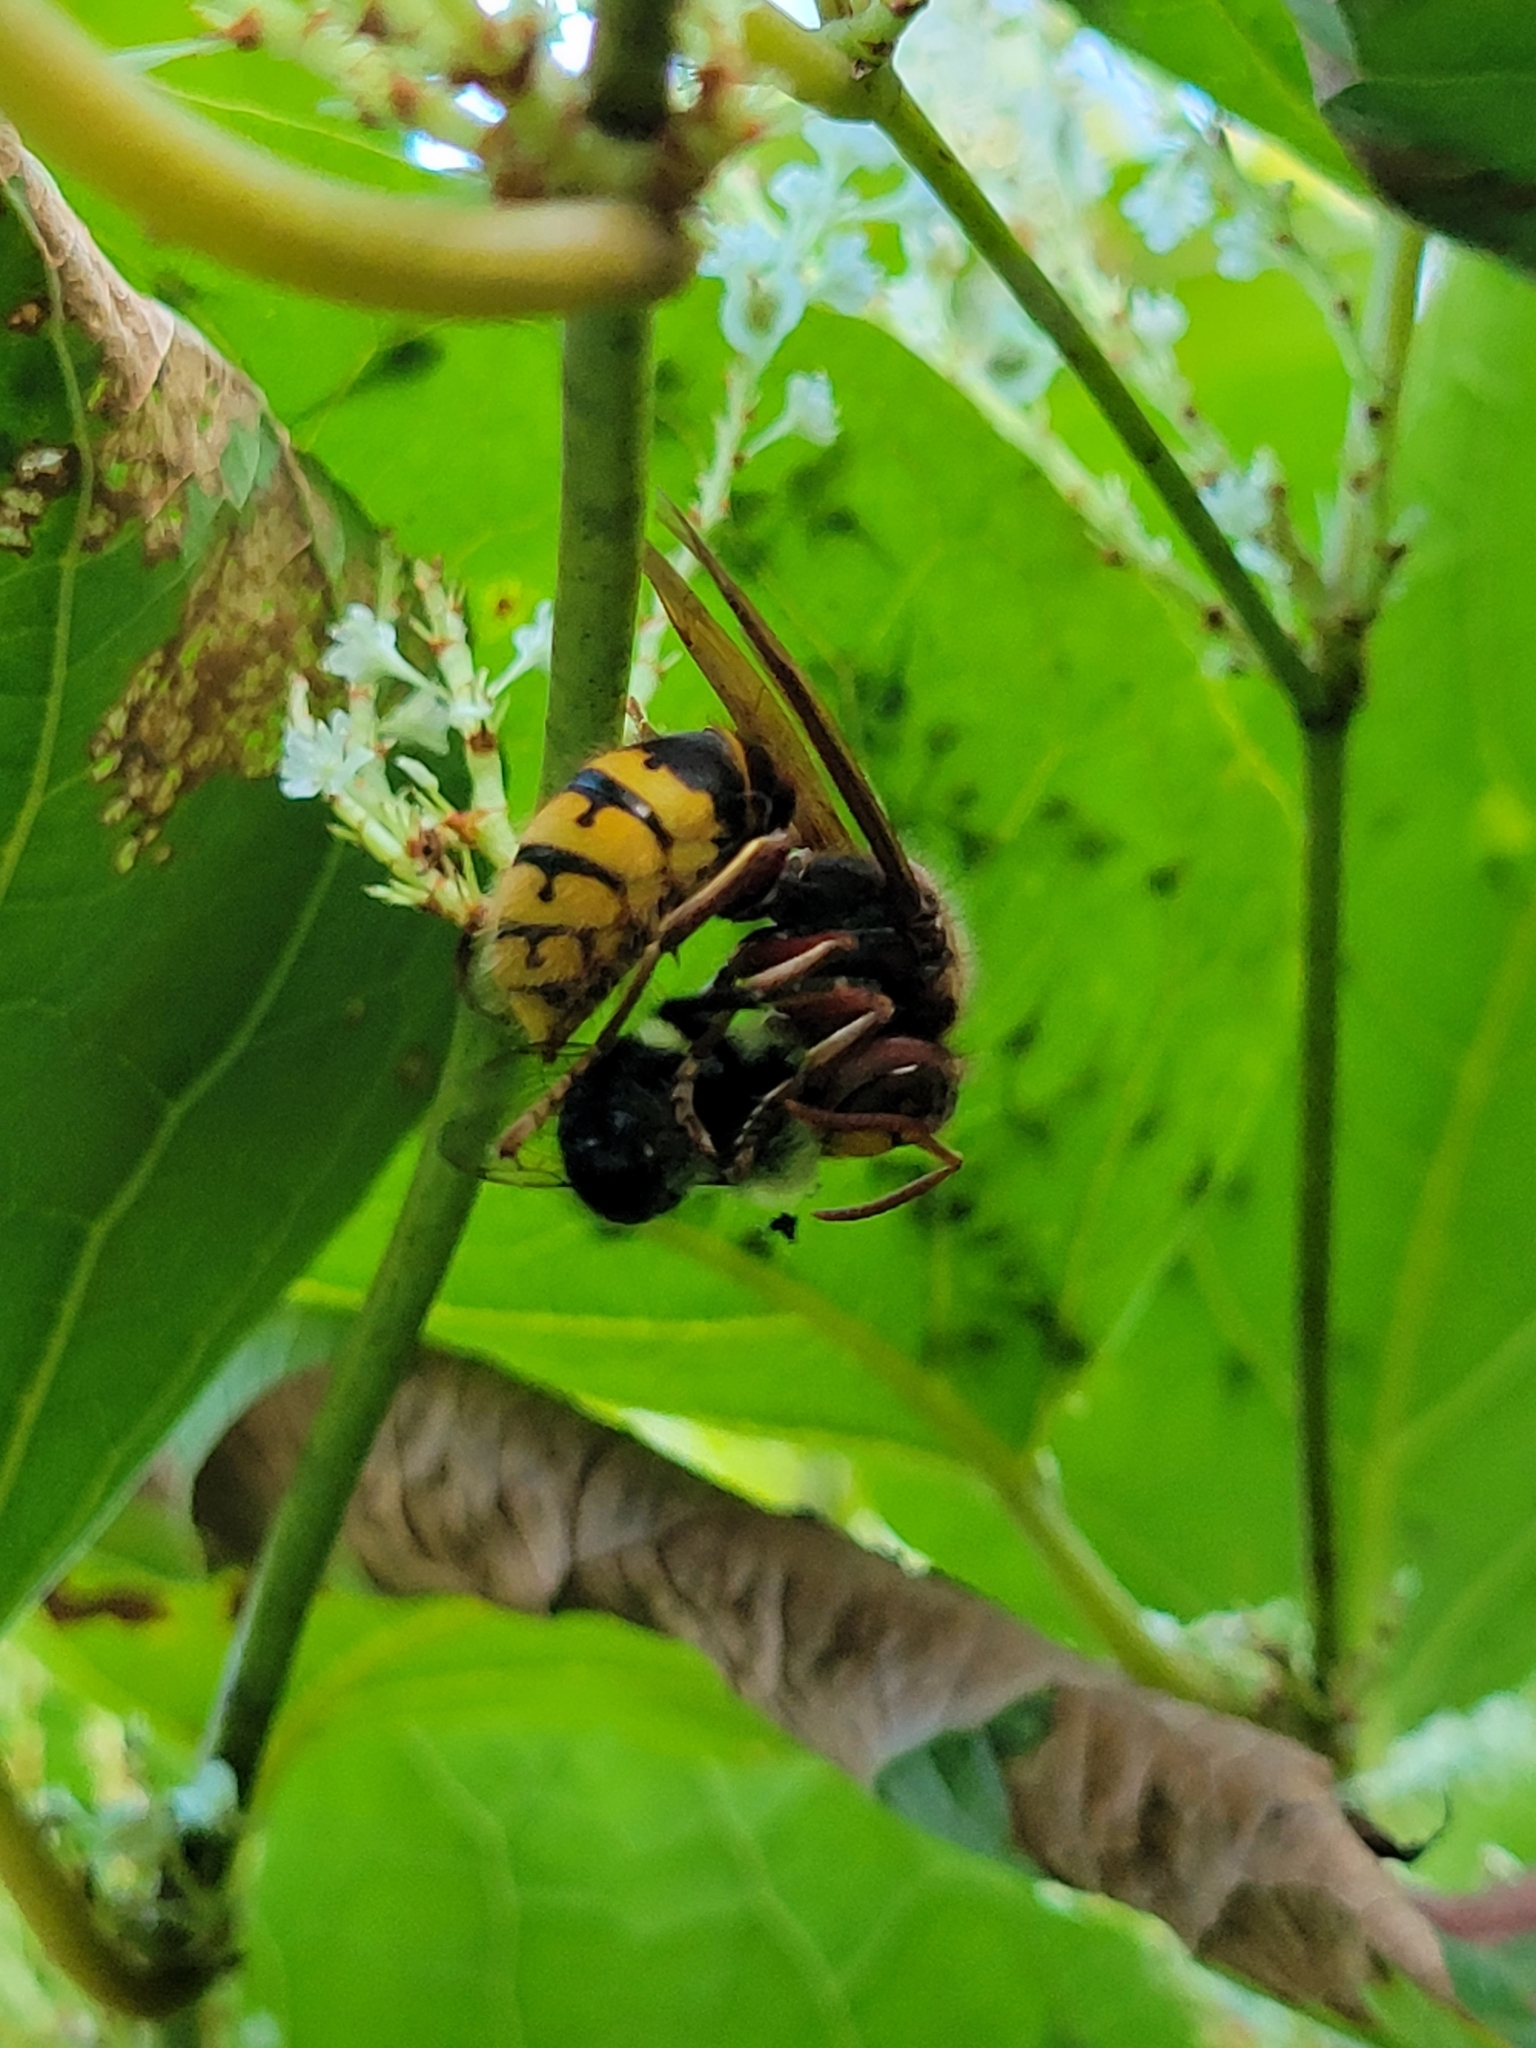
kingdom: Animalia
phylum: Arthropoda
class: Insecta
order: Hymenoptera
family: Vespidae
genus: Vespa
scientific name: Vespa crabro
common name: Hornet
